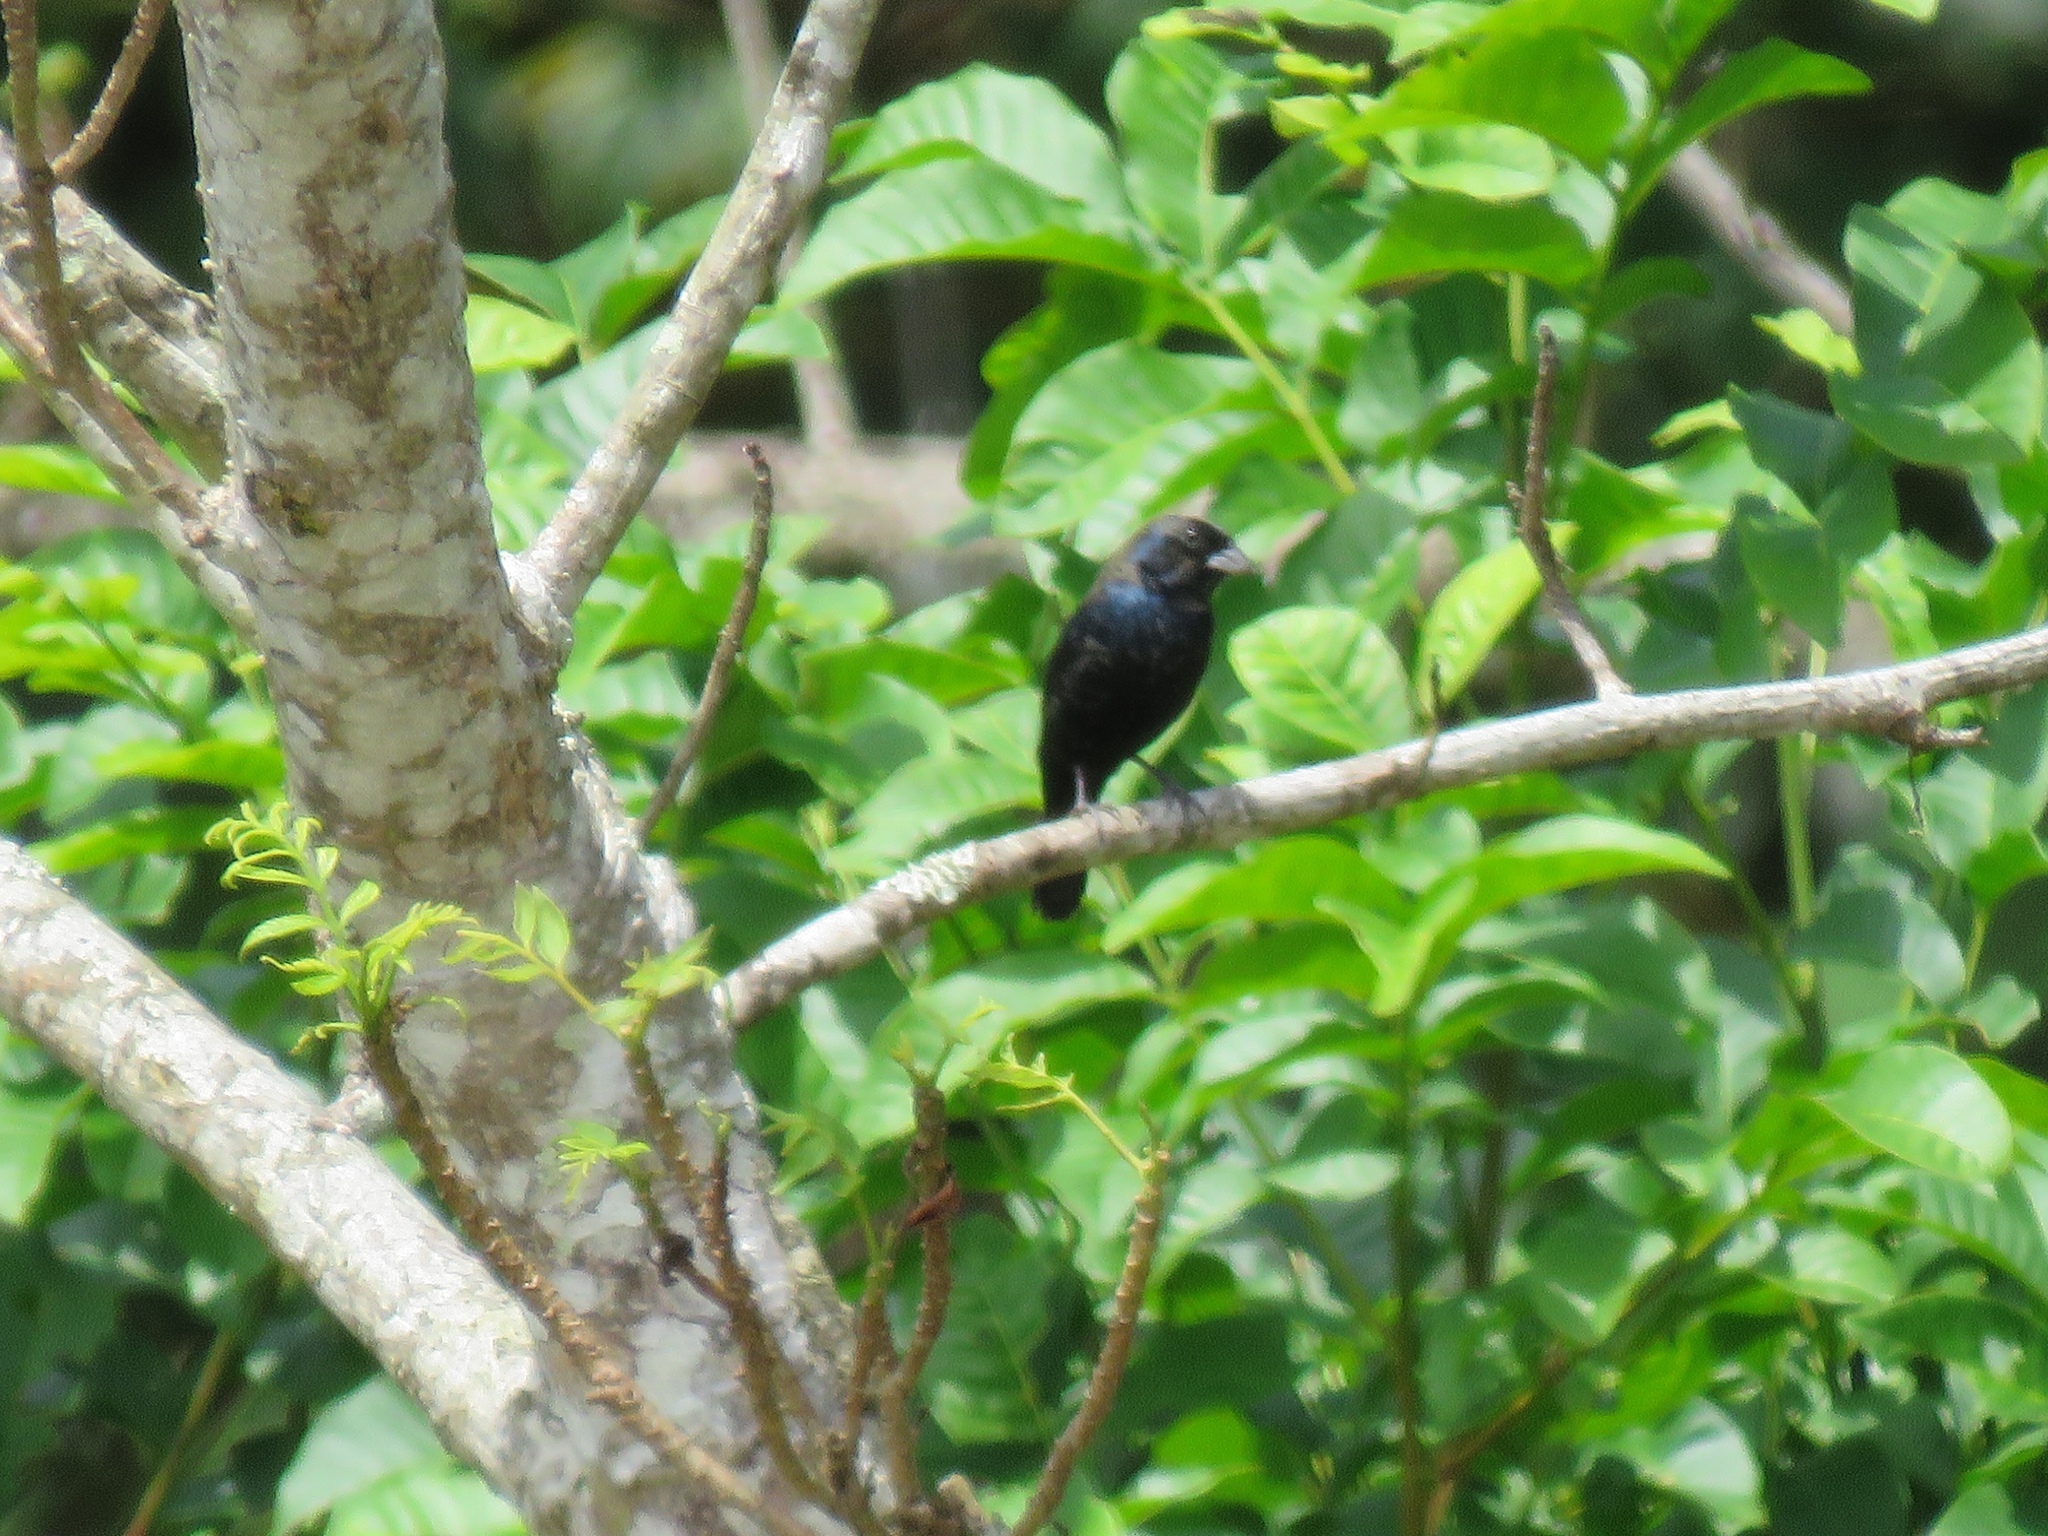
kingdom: Animalia
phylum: Chordata
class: Aves
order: Passeriformes
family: Thraupidae
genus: Volatinia
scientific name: Volatinia jacarina
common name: Blue-black grassquit
